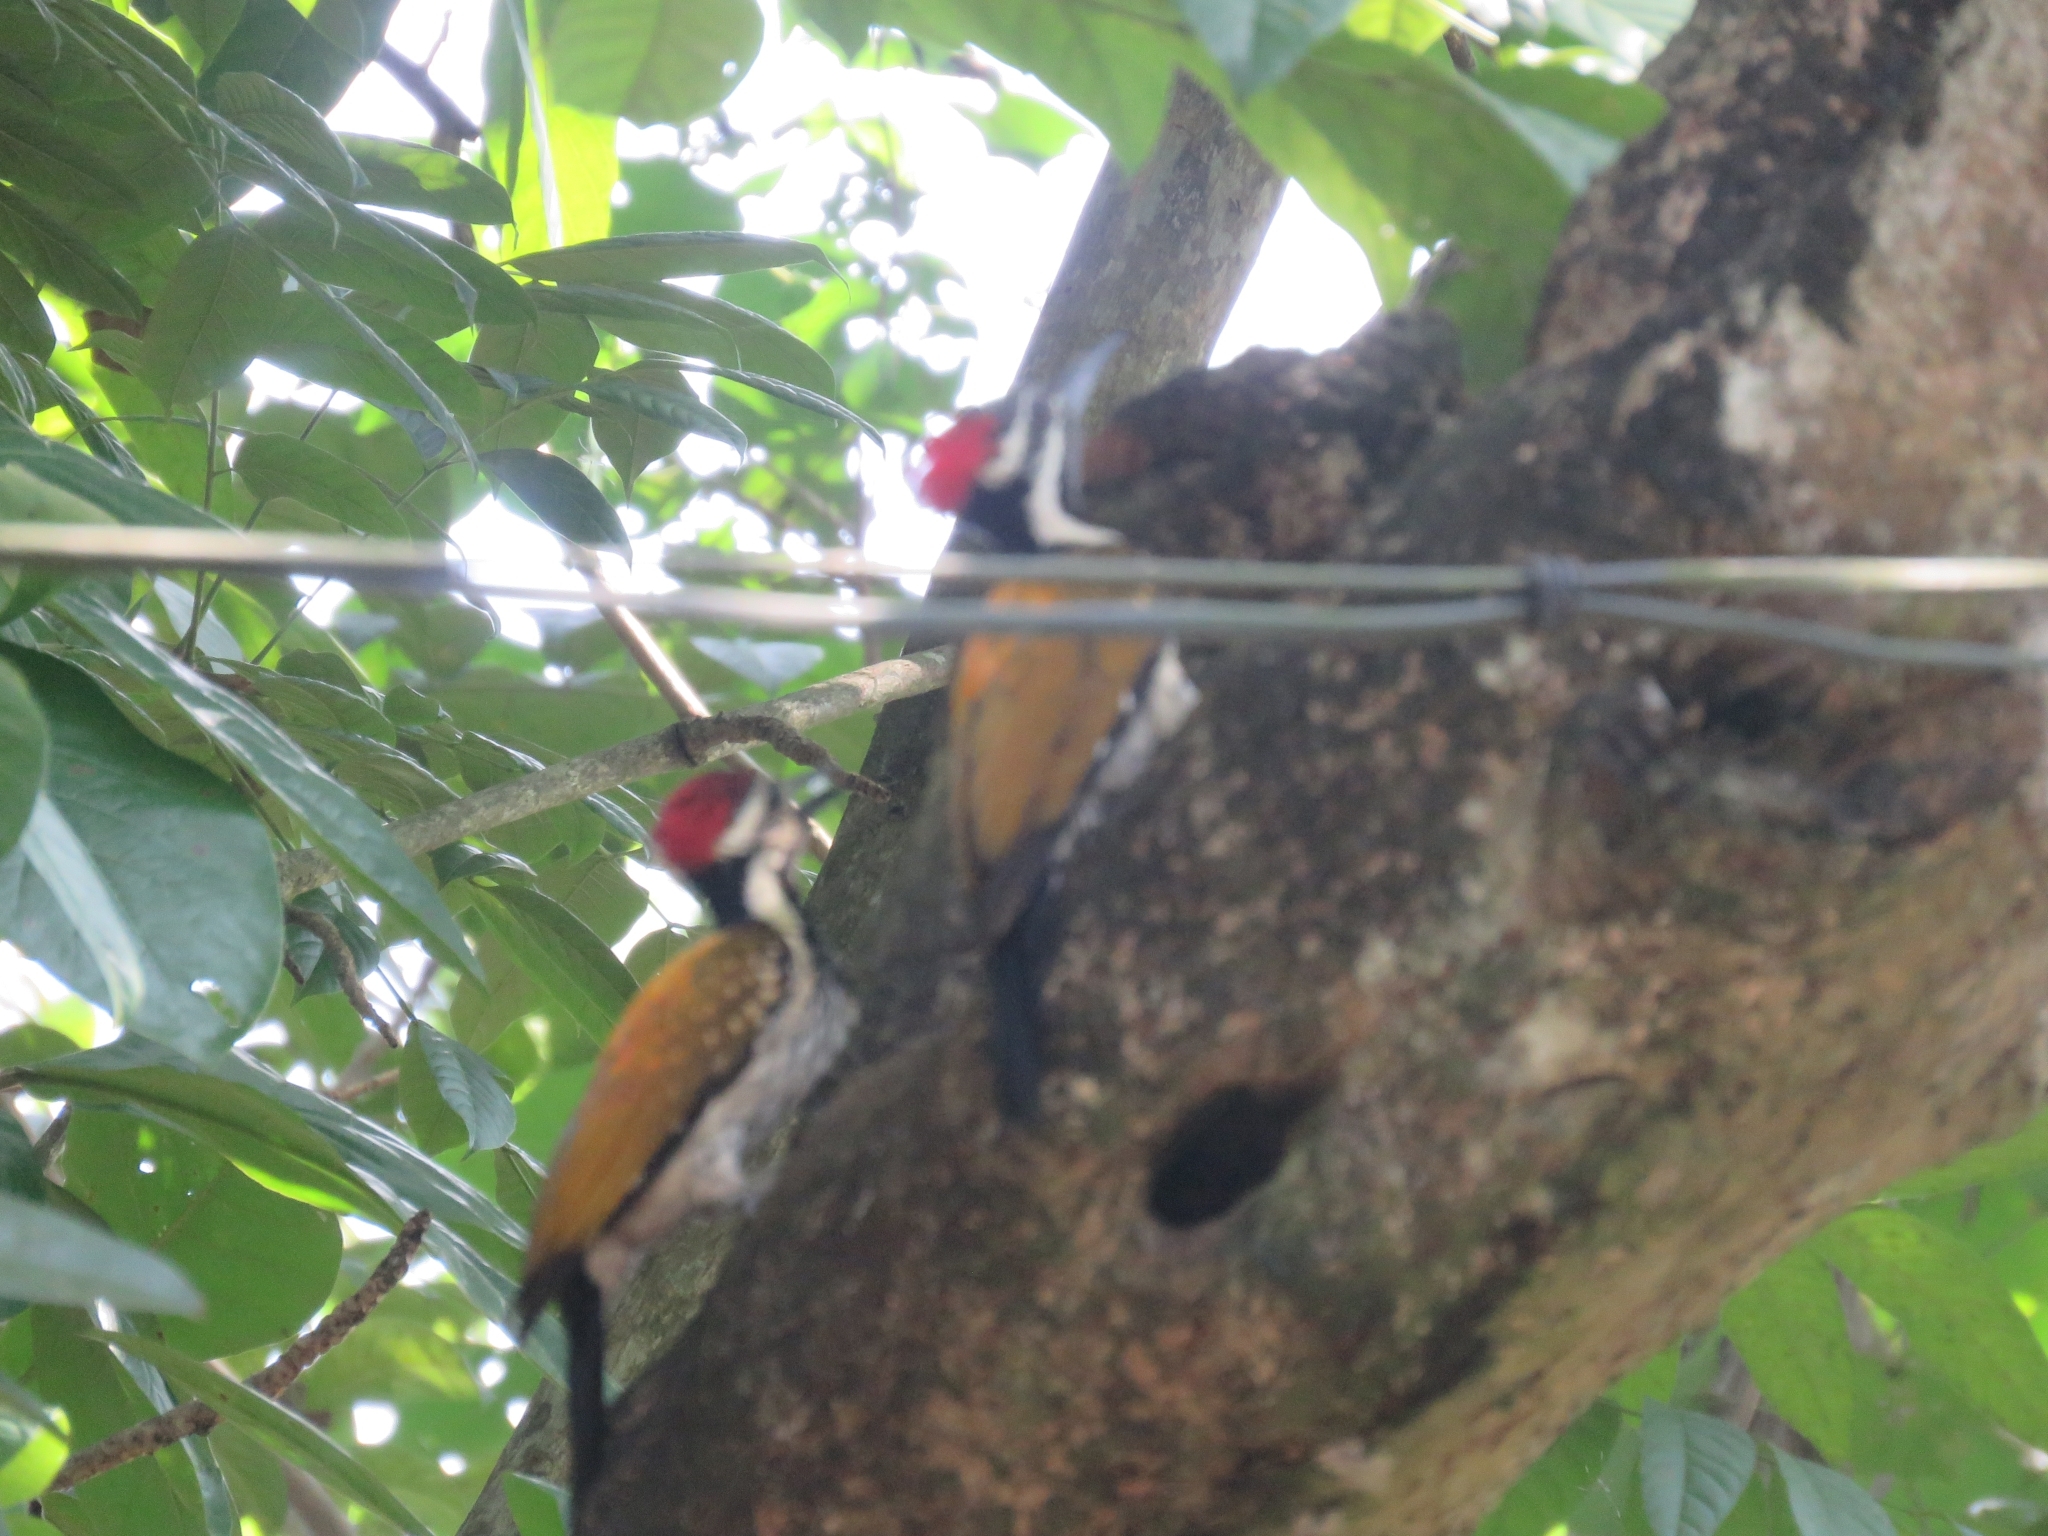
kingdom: Animalia
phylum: Chordata
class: Aves
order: Piciformes
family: Picidae
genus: Dinopium
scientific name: Dinopium benghalense
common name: Black-rumped flameback
